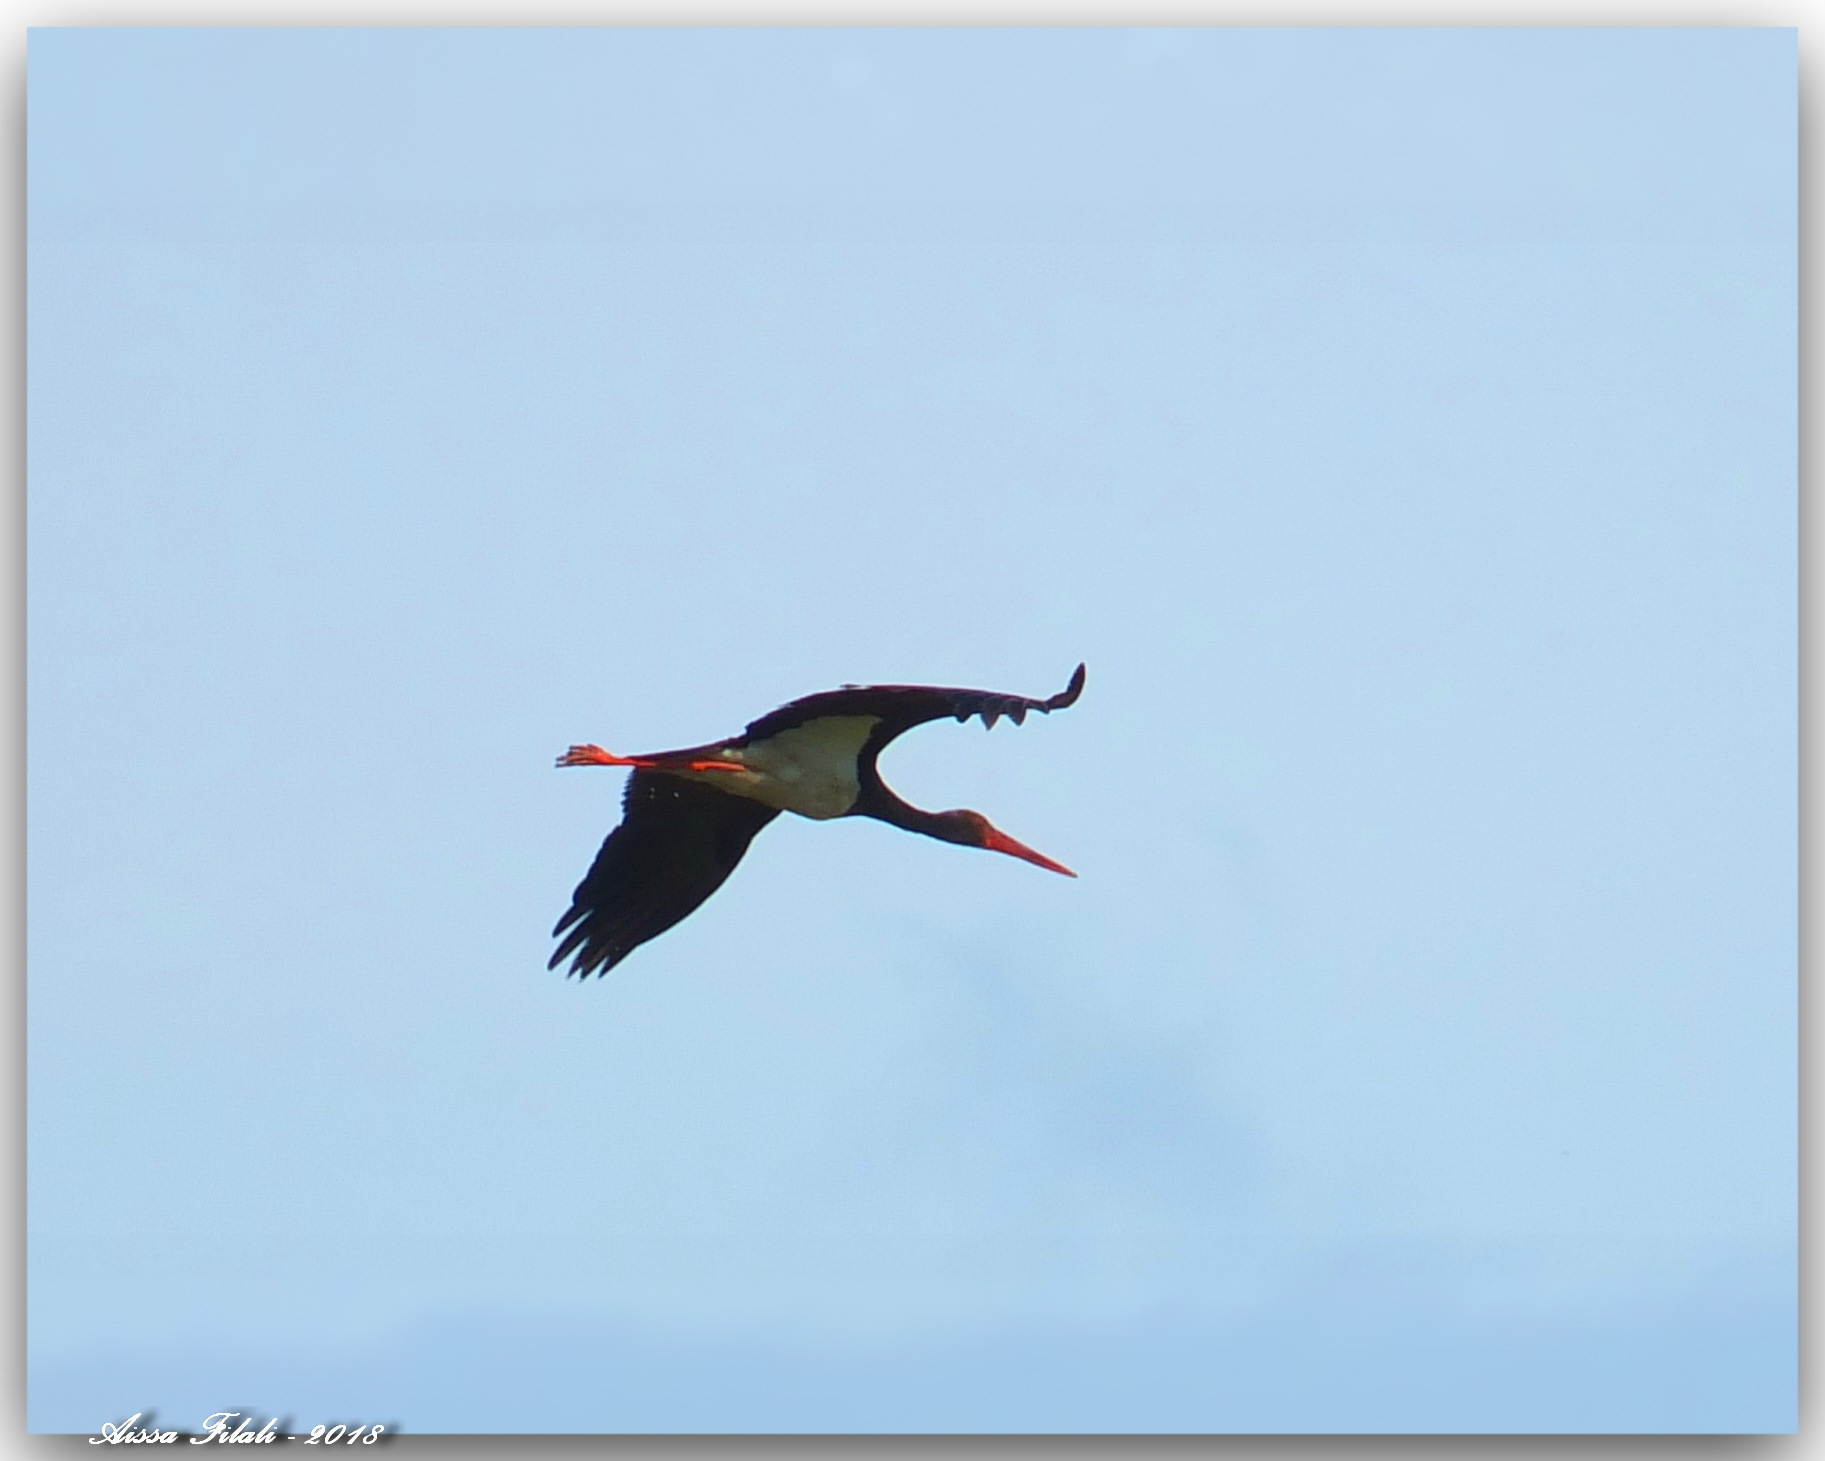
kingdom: Animalia
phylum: Chordata
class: Aves
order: Ciconiiformes
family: Ciconiidae
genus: Ciconia
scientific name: Ciconia nigra
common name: Black stork
